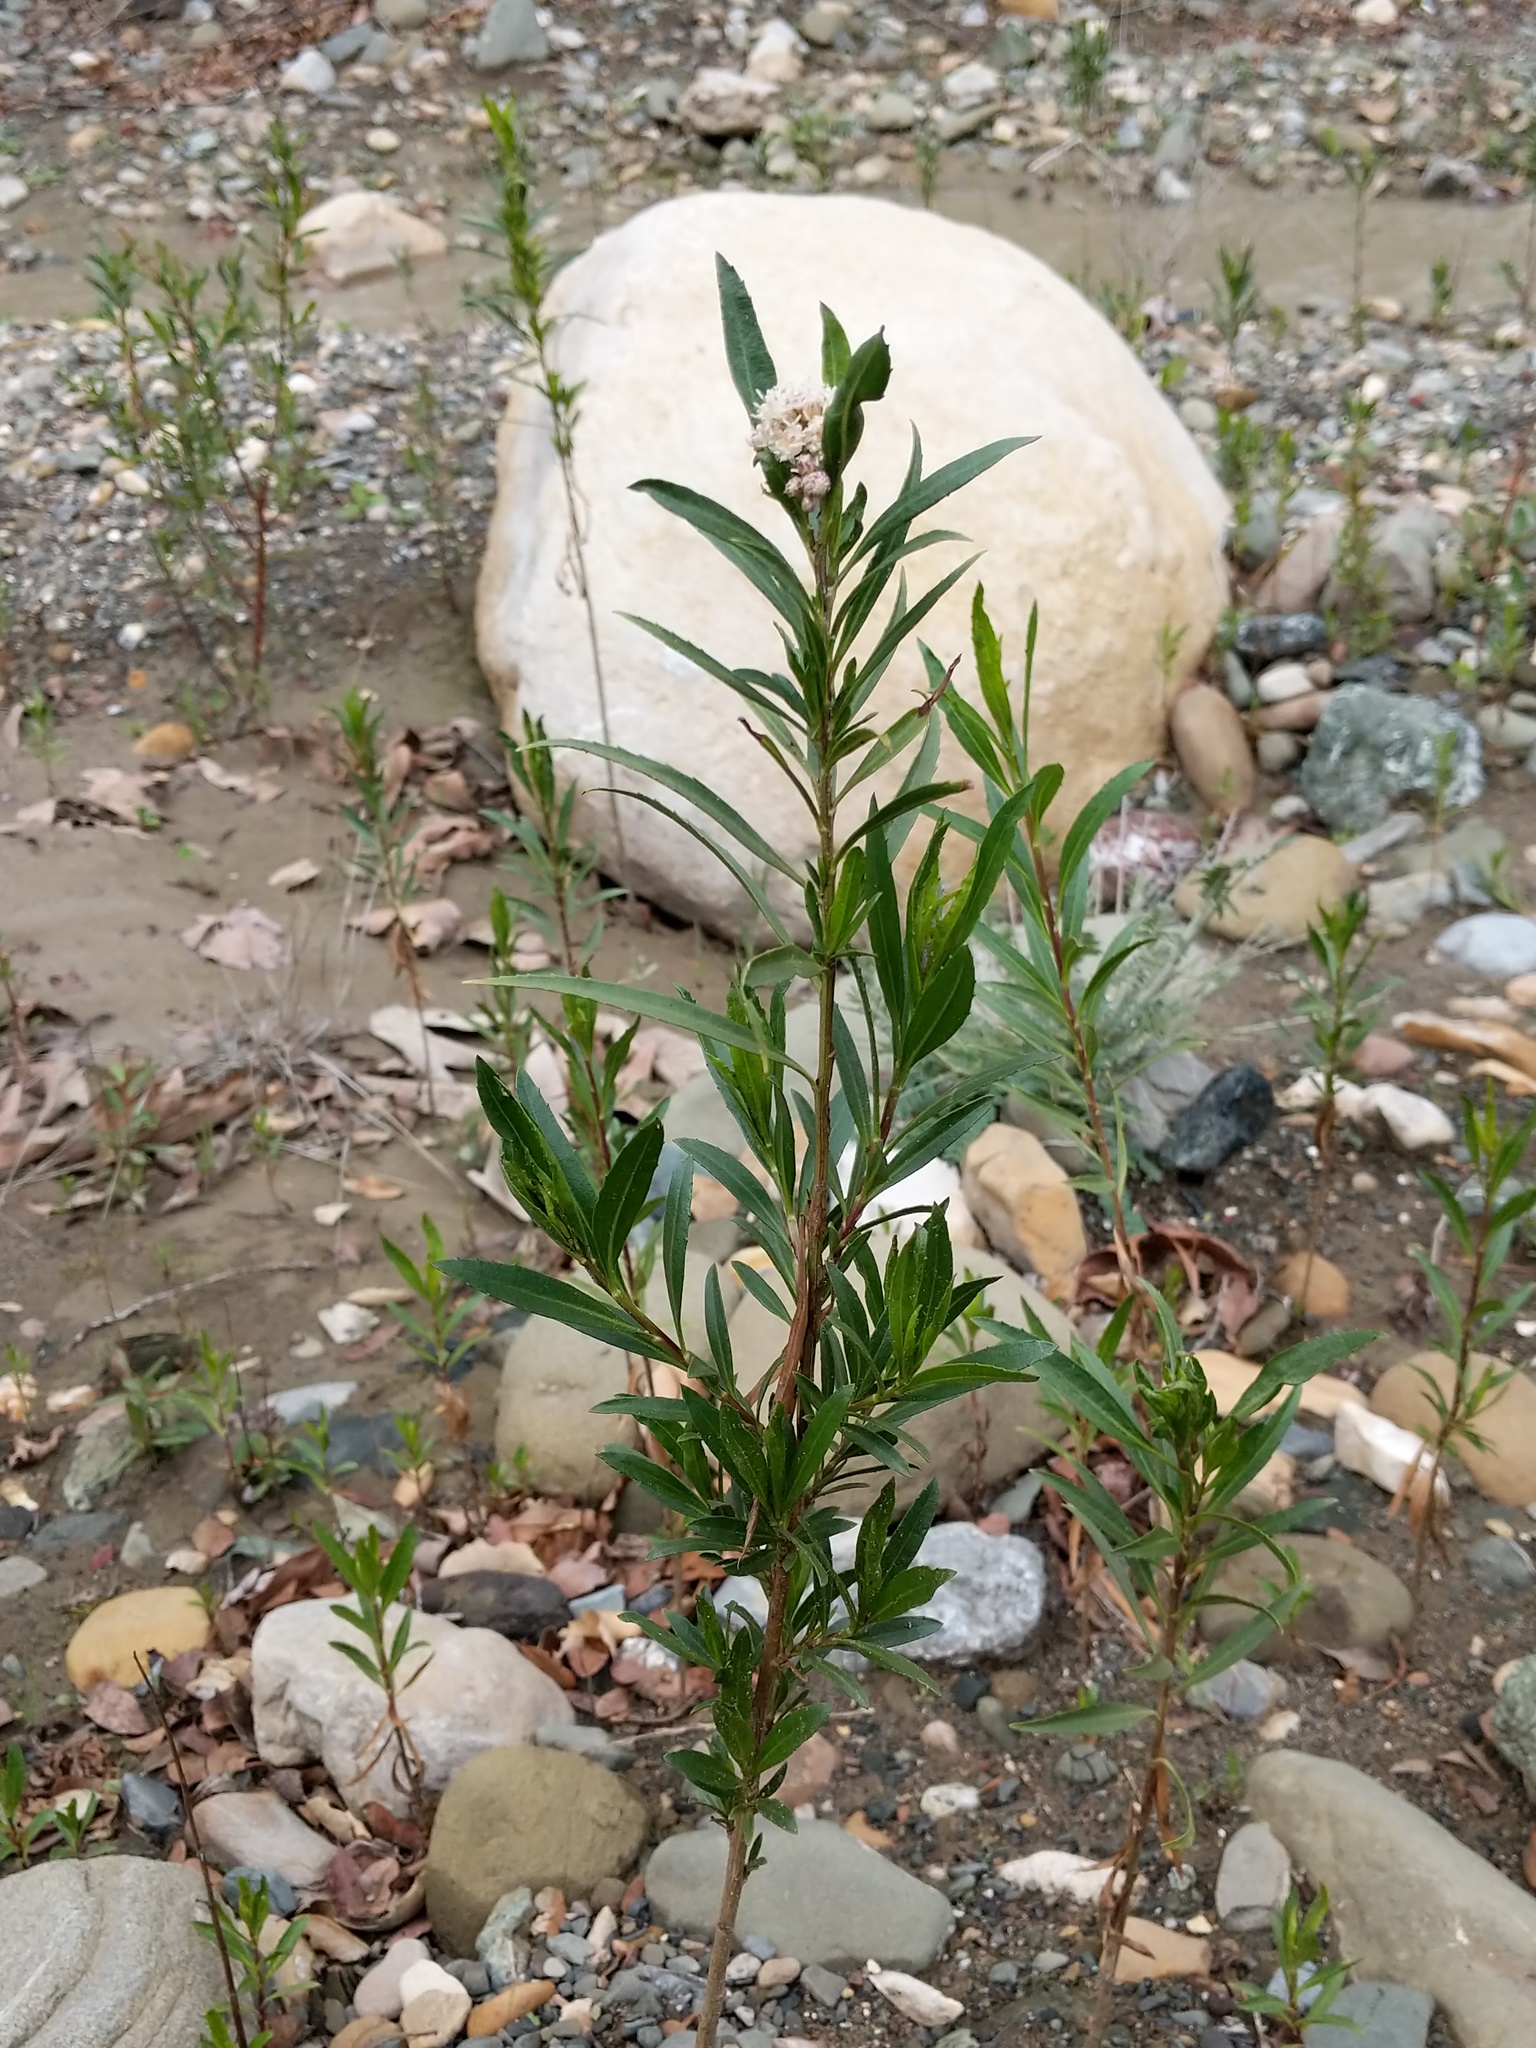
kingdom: Plantae
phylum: Tracheophyta
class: Magnoliopsida
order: Asterales
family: Asteraceae
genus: Baccharis
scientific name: Baccharis salicifolia
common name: Sticky baccharis
